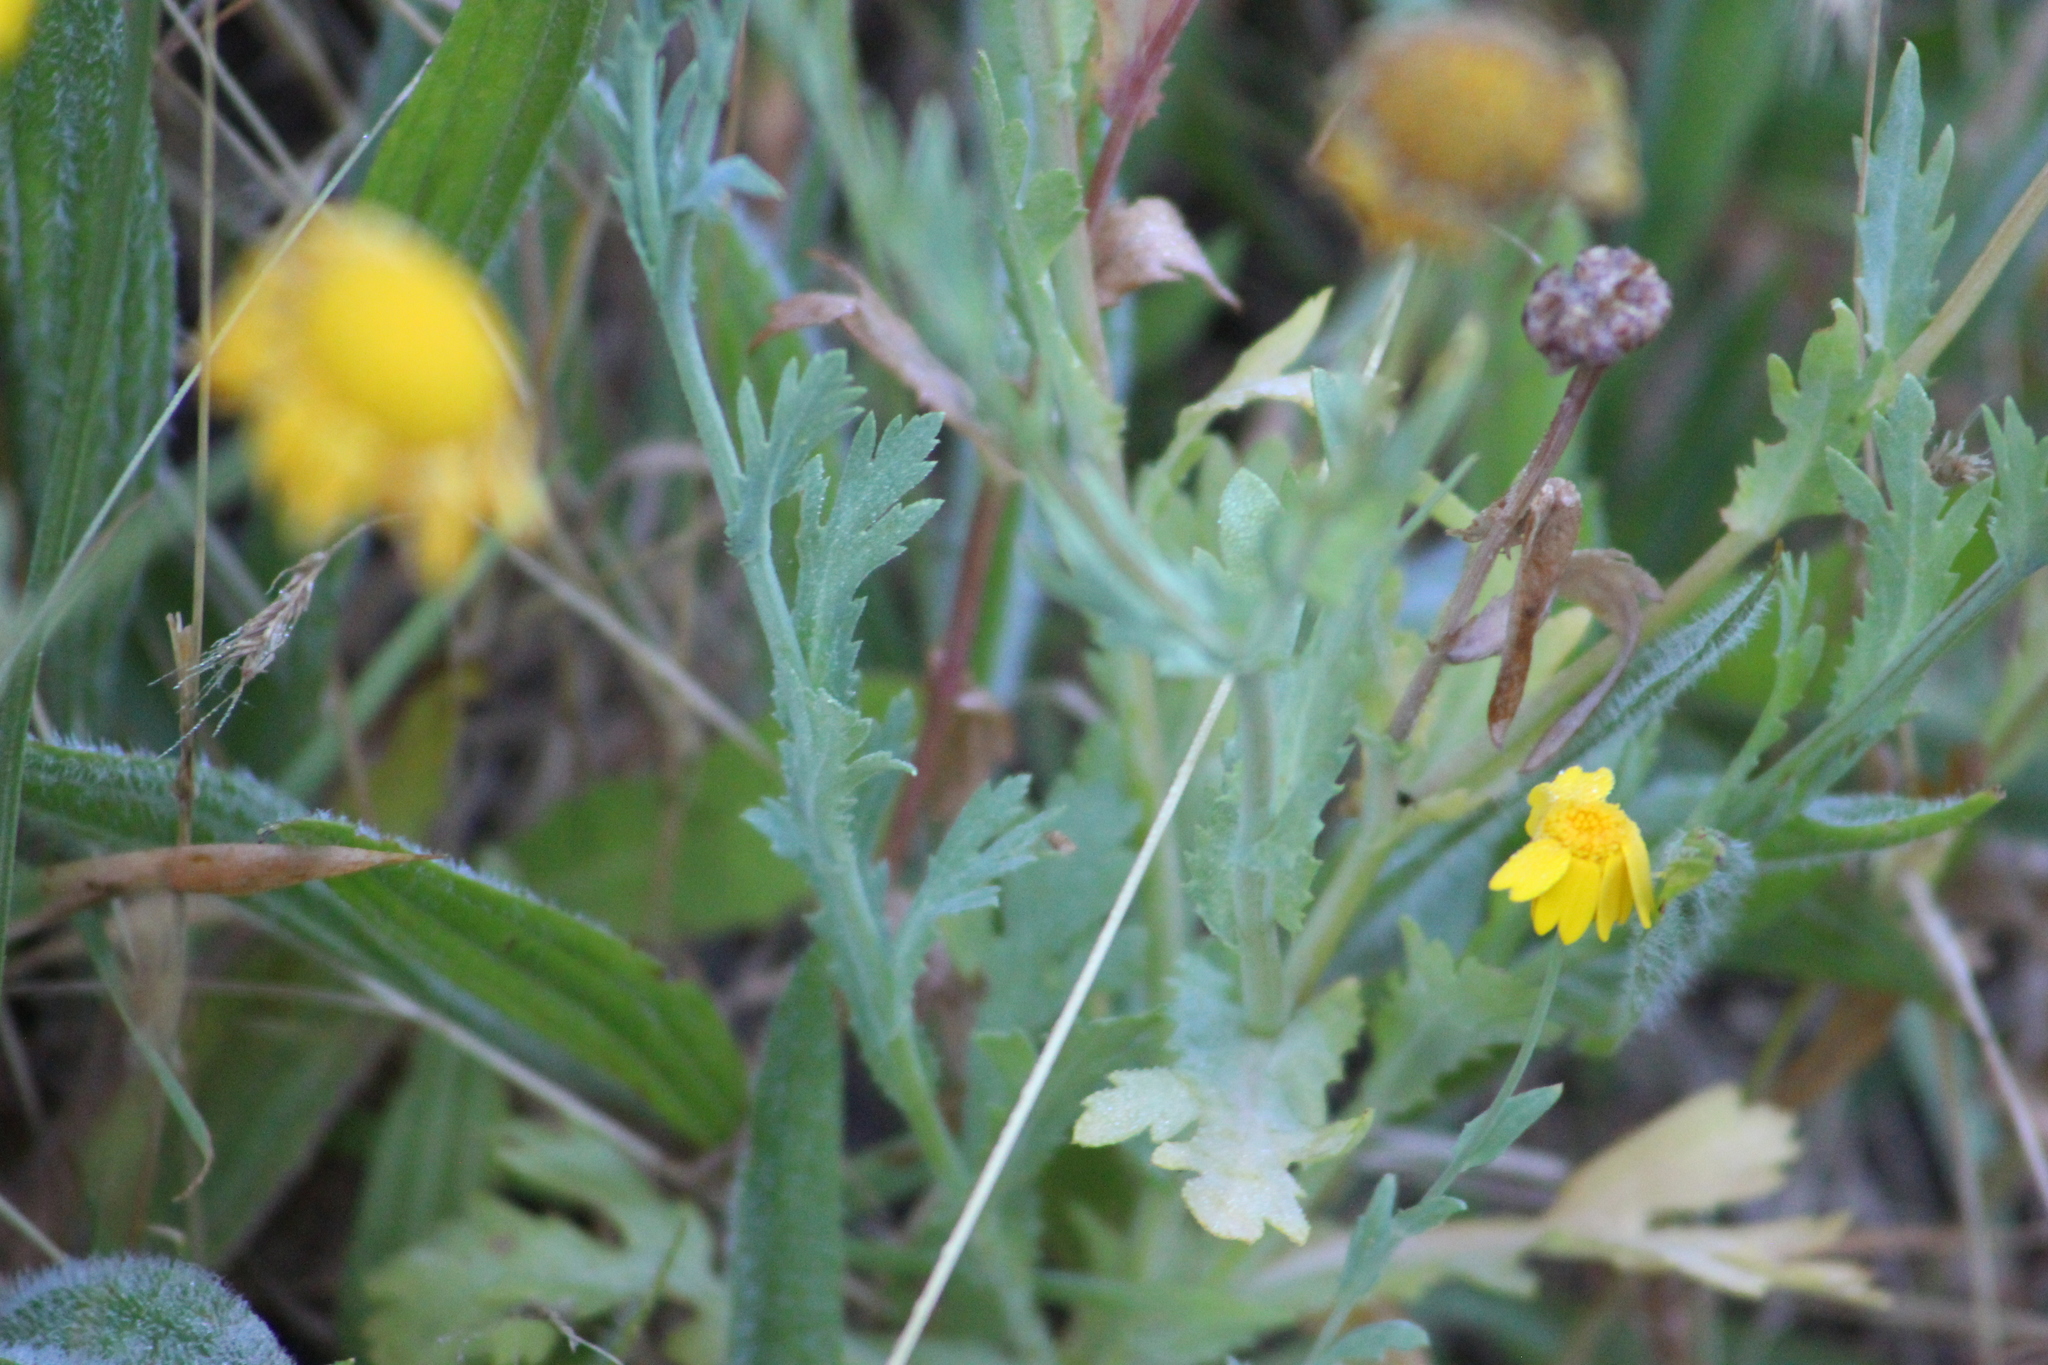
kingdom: Plantae
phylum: Tracheophyta
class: Magnoliopsida
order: Asterales
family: Asteraceae
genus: Cota
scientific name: Cota tinctoria
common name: Golden chamomile
